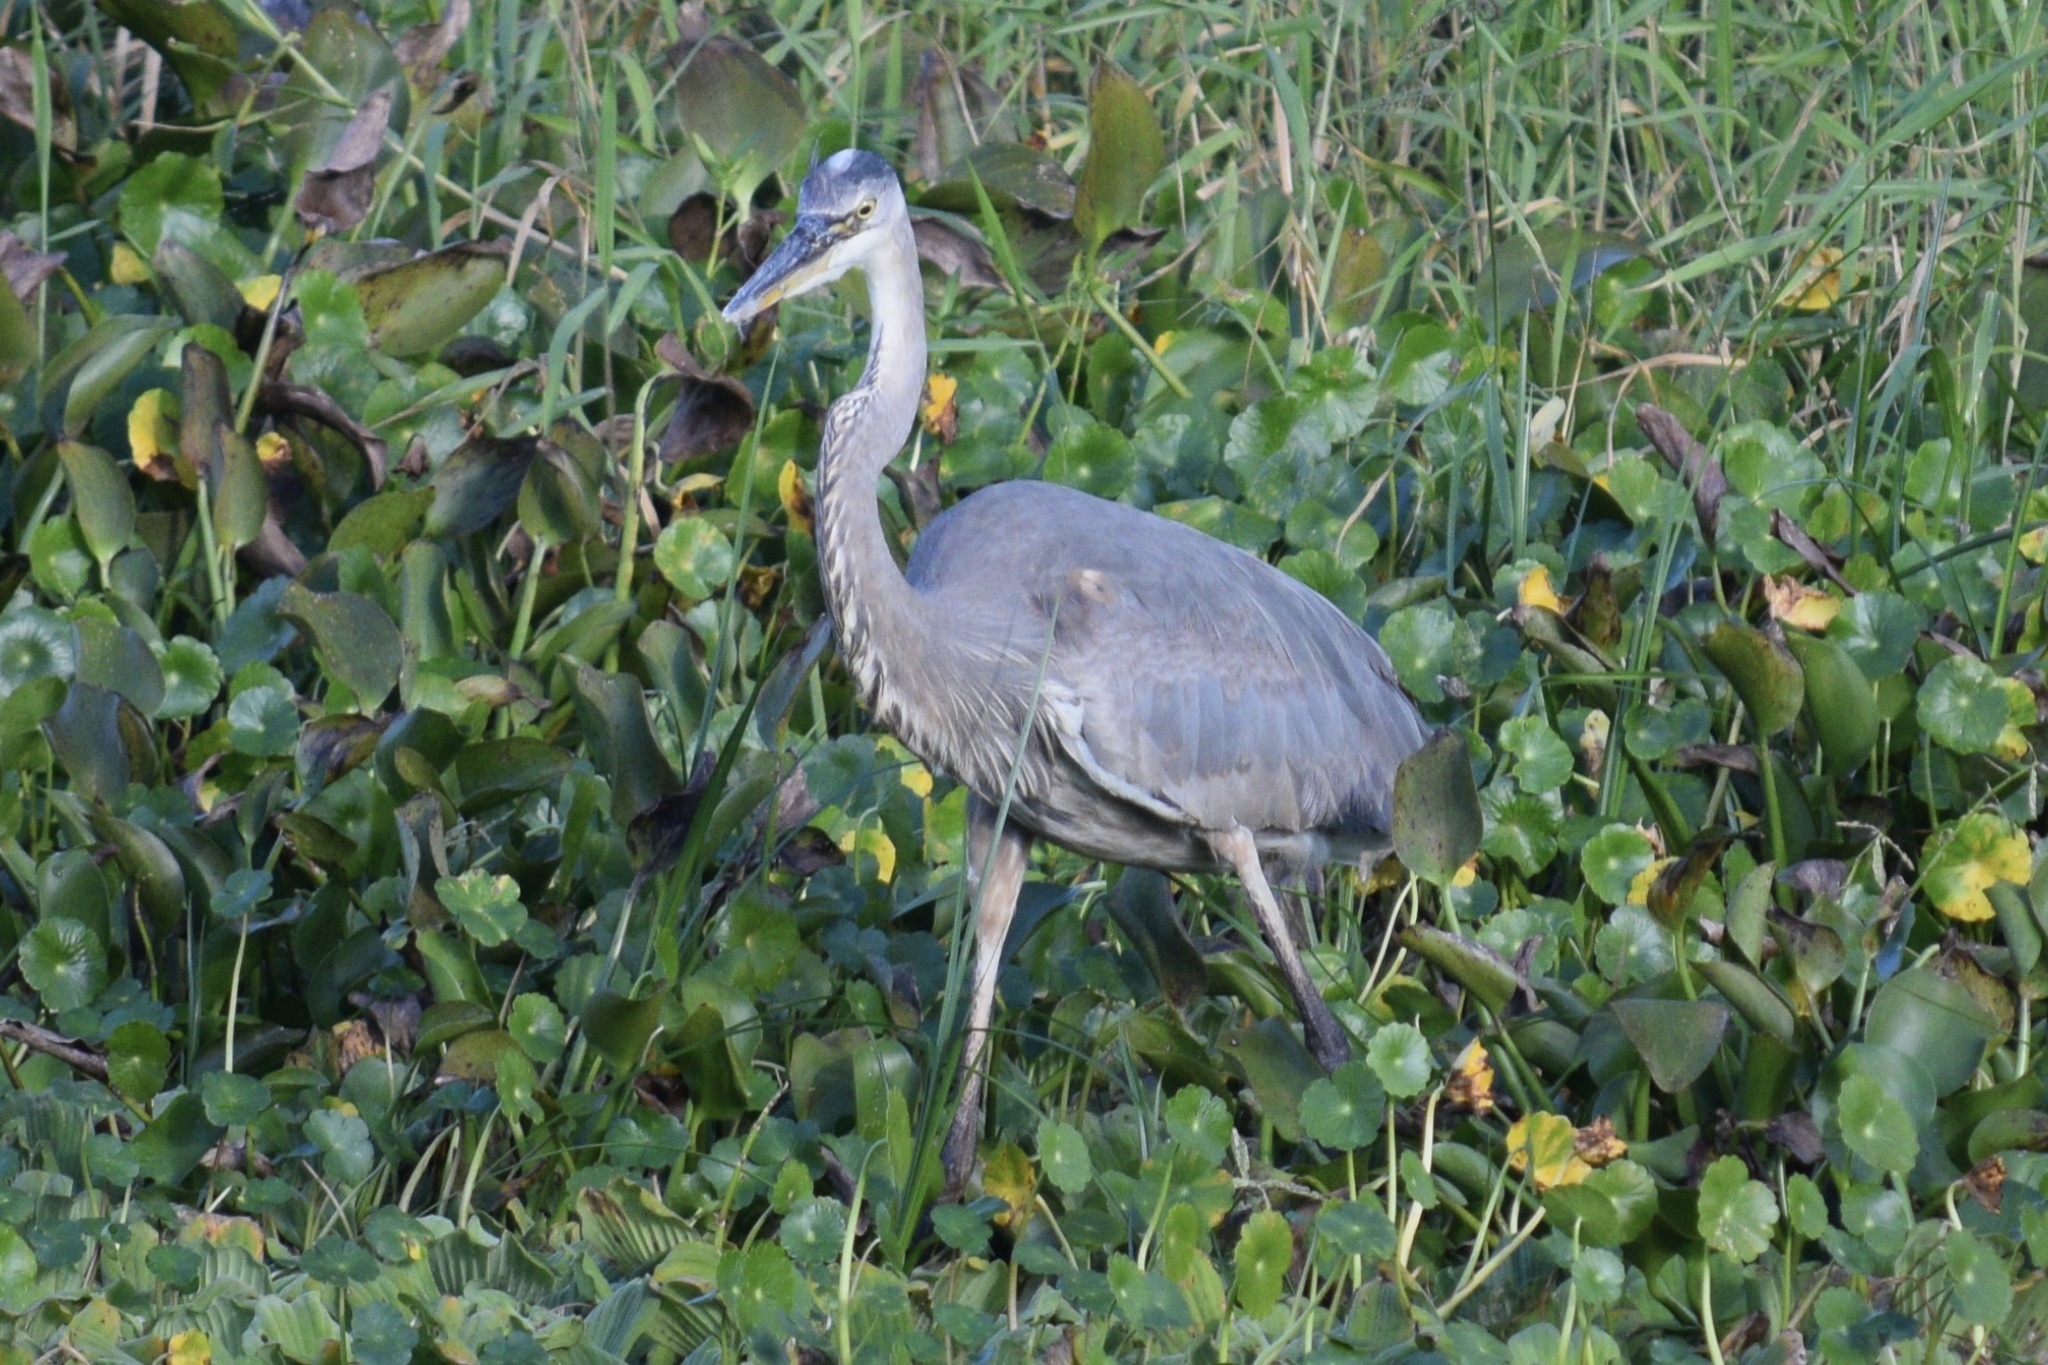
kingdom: Animalia
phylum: Chordata
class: Aves
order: Pelecaniformes
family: Ardeidae
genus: Ardea
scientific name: Ardea herodias
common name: Great blue heron
